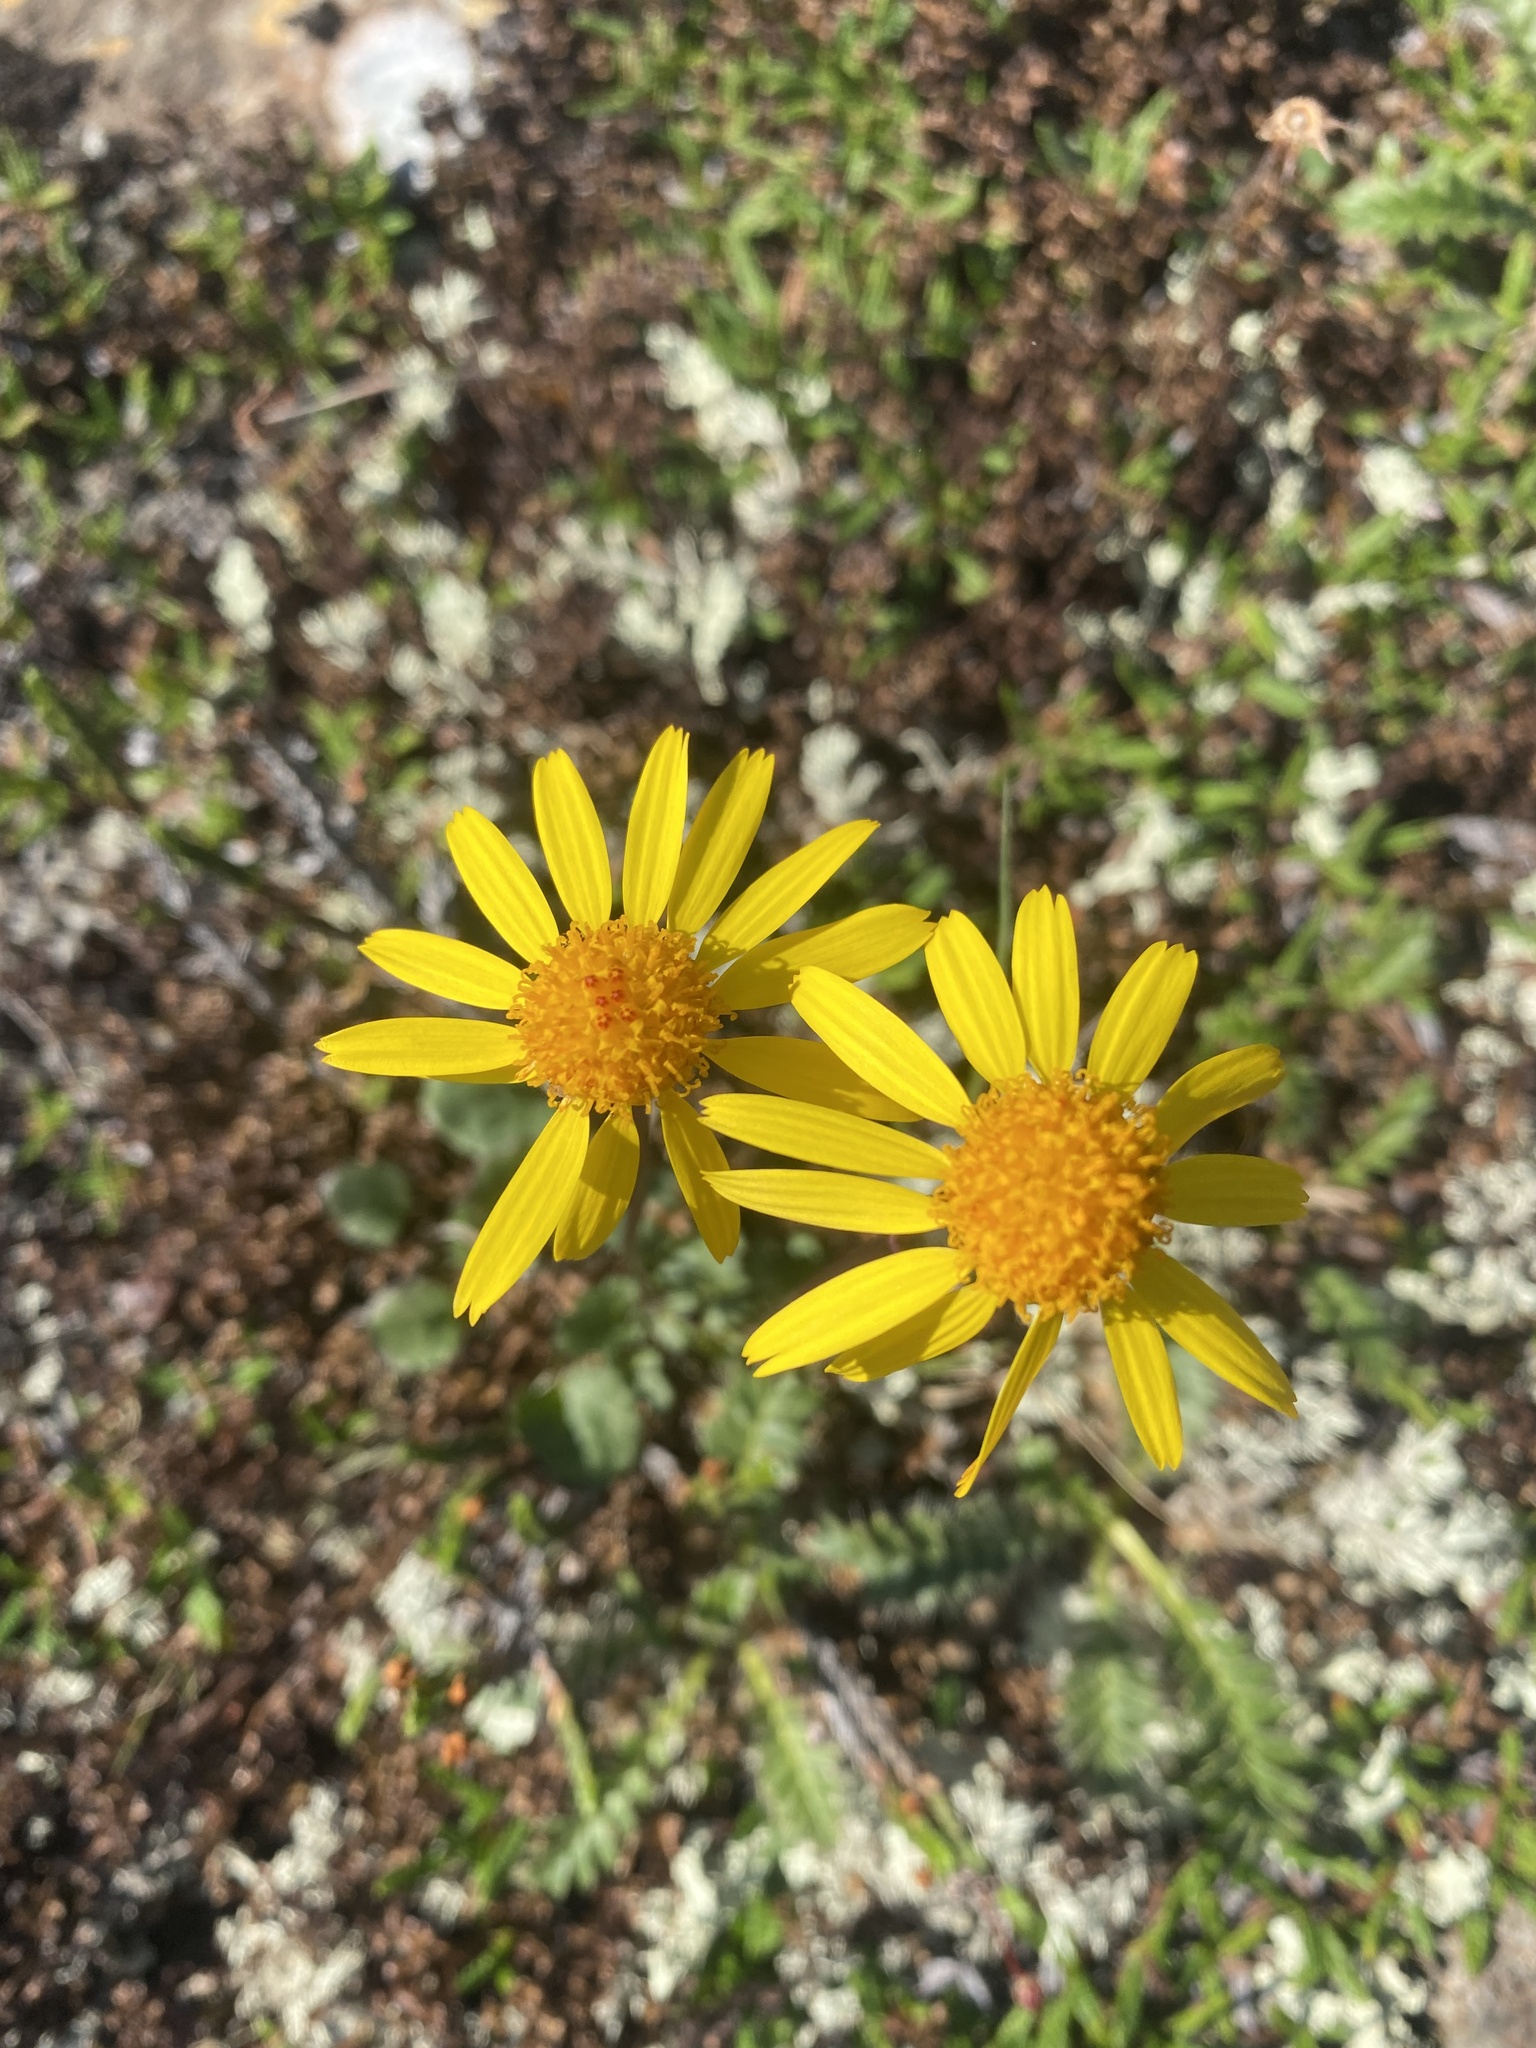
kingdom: Plantae
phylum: Tracheophyta
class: Magnoliopsida
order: Asterales
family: Asteraceae
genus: Packera
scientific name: Packera heterophylla
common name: Arctic butterweed
